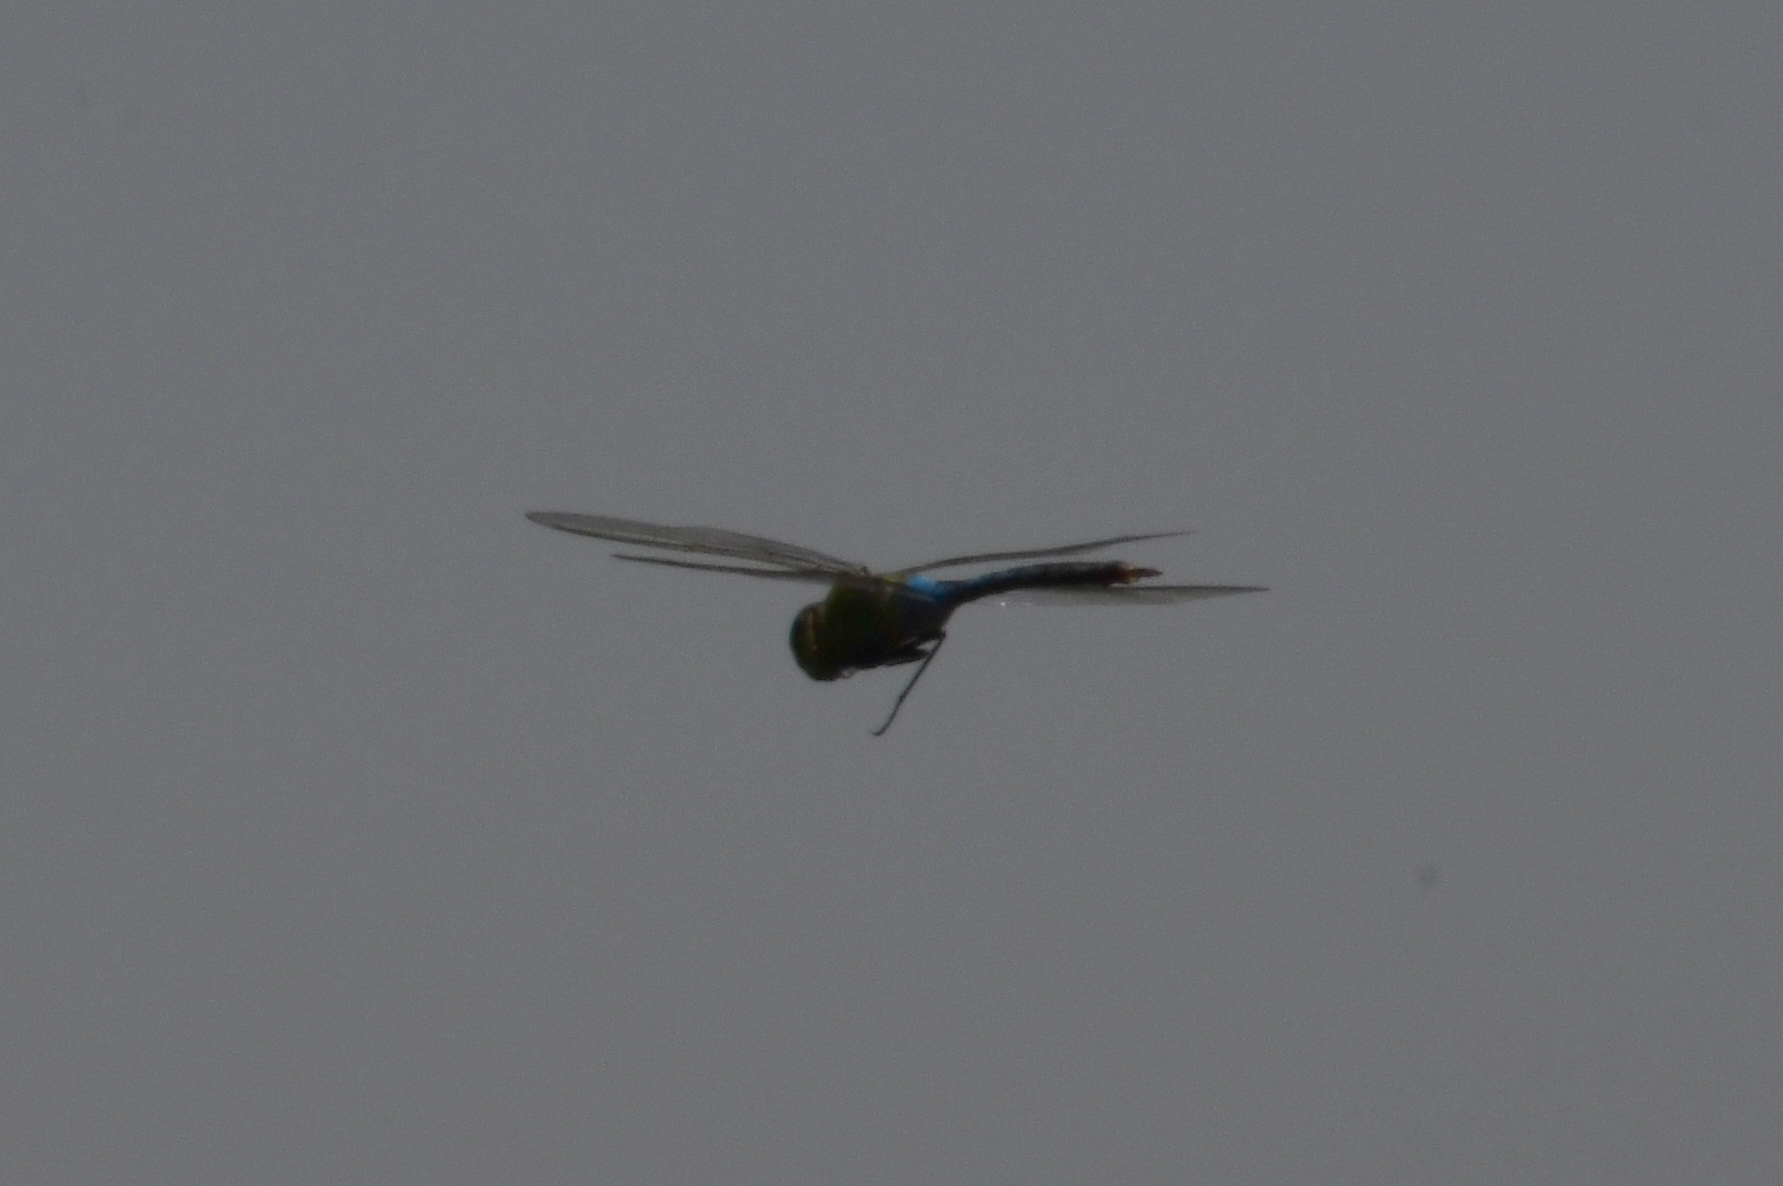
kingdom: Animalia
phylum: Arthropoda
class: Insecta
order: Odonata
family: Aeshnidae
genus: Anax
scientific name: Anax junius
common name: Common green darner
